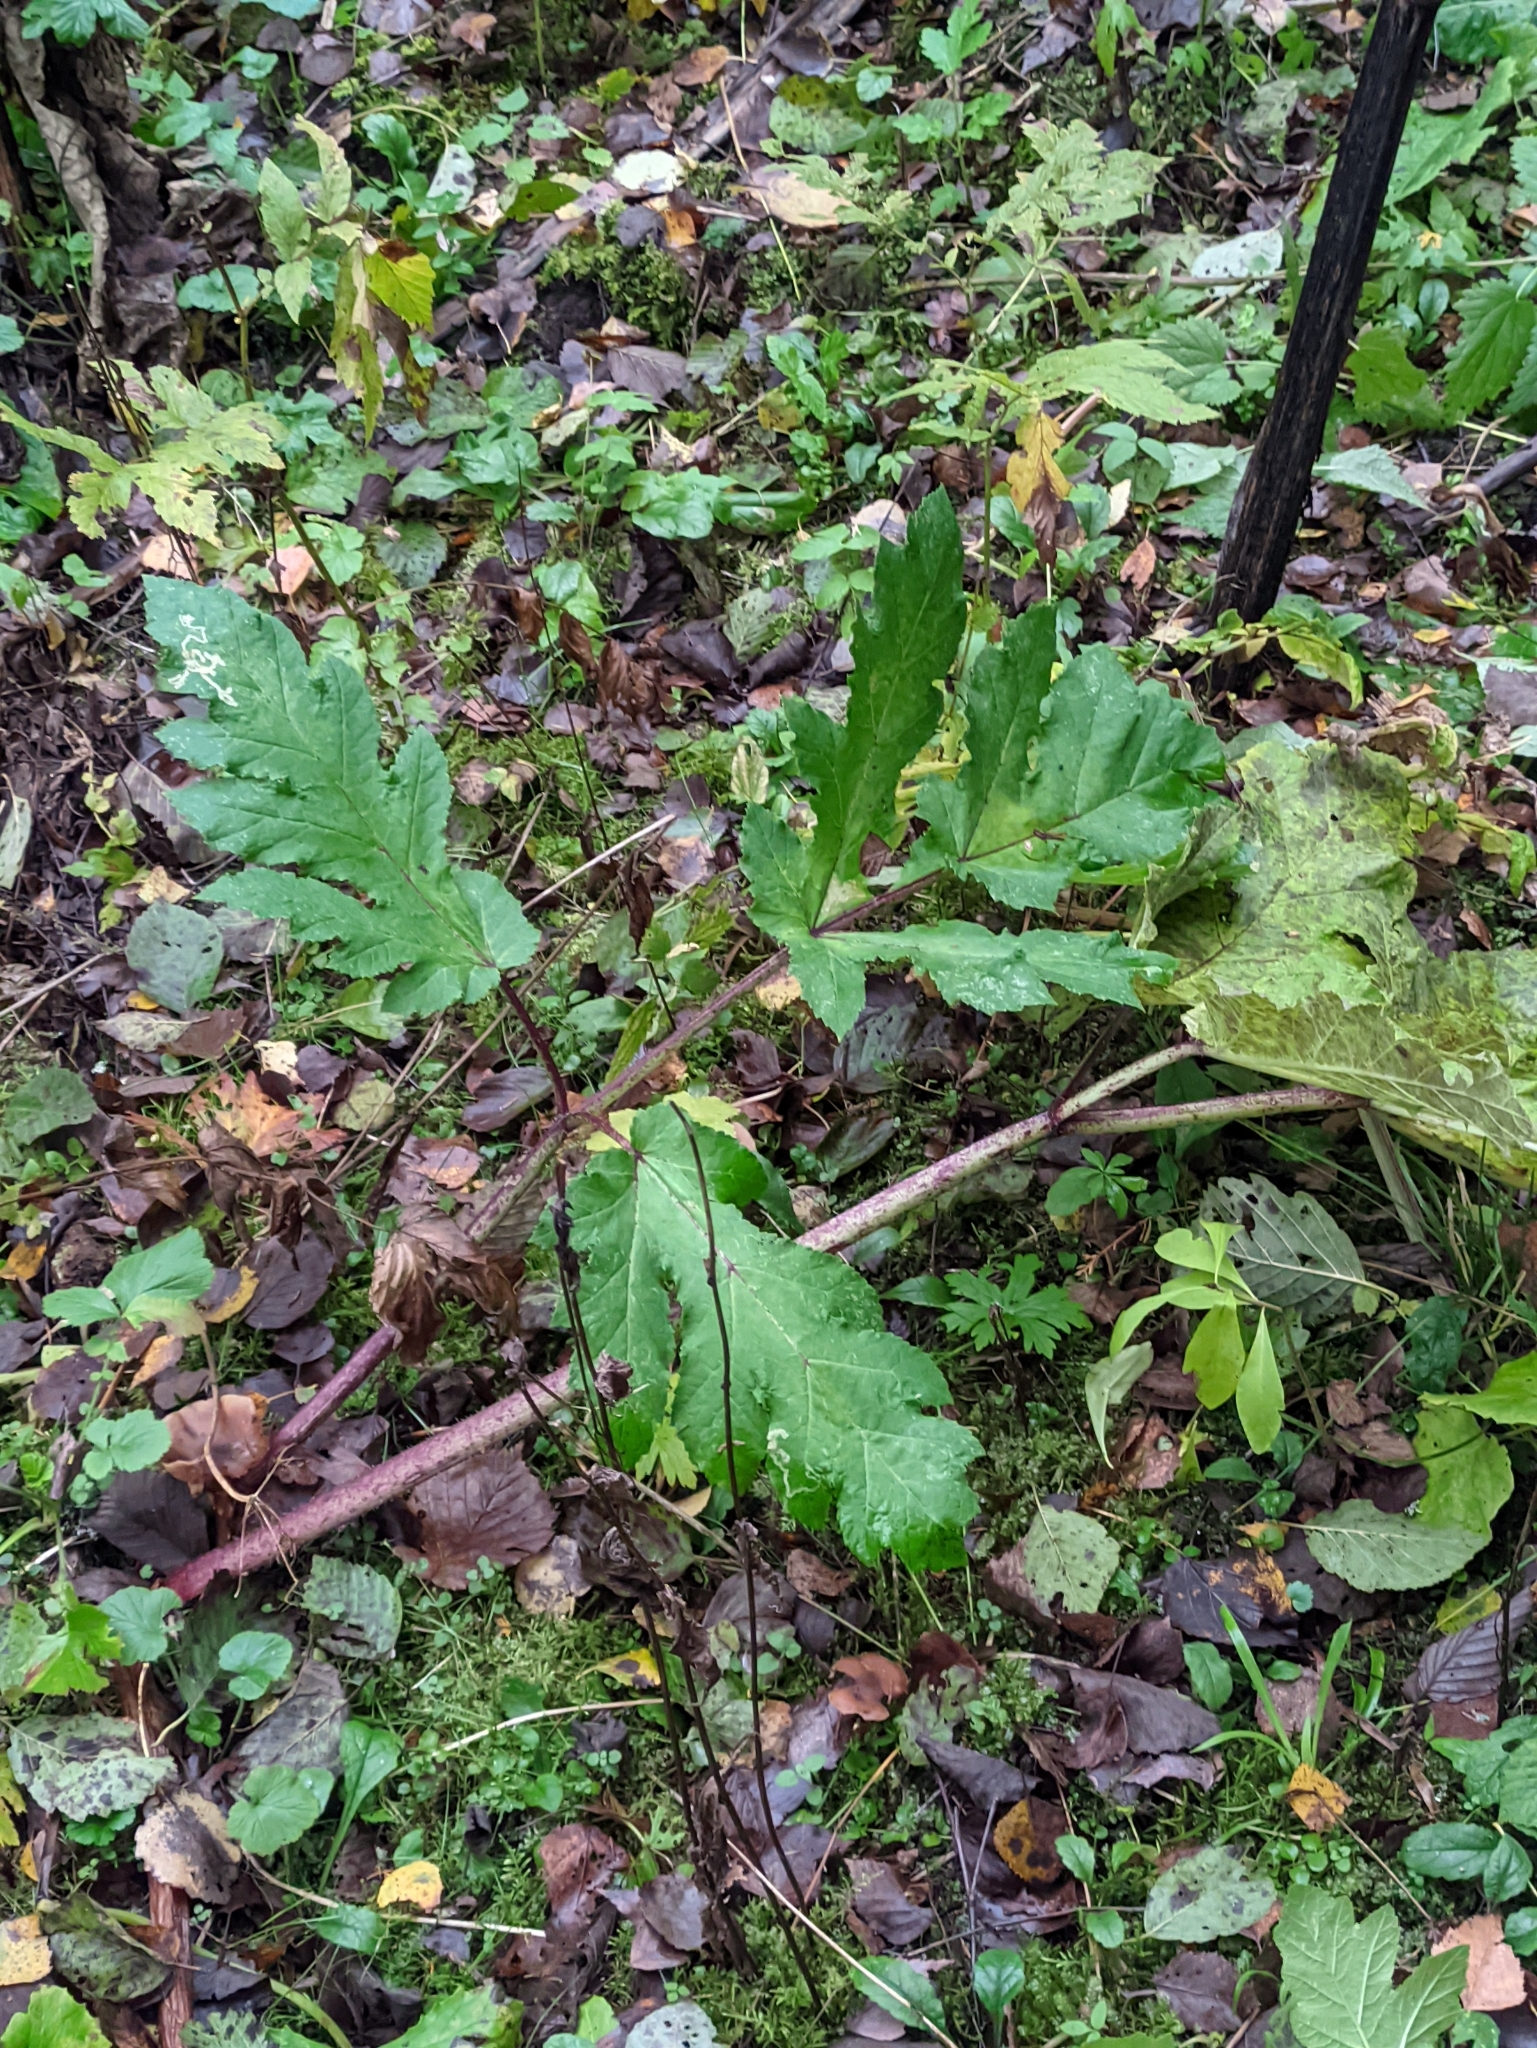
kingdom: Plantae
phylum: Tracheophyta
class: Magnoliopsida
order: Apiales
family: Apiaceae
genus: Heracleum
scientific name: Heracleum sosnowskyi
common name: Sosnowsky's hogweed
